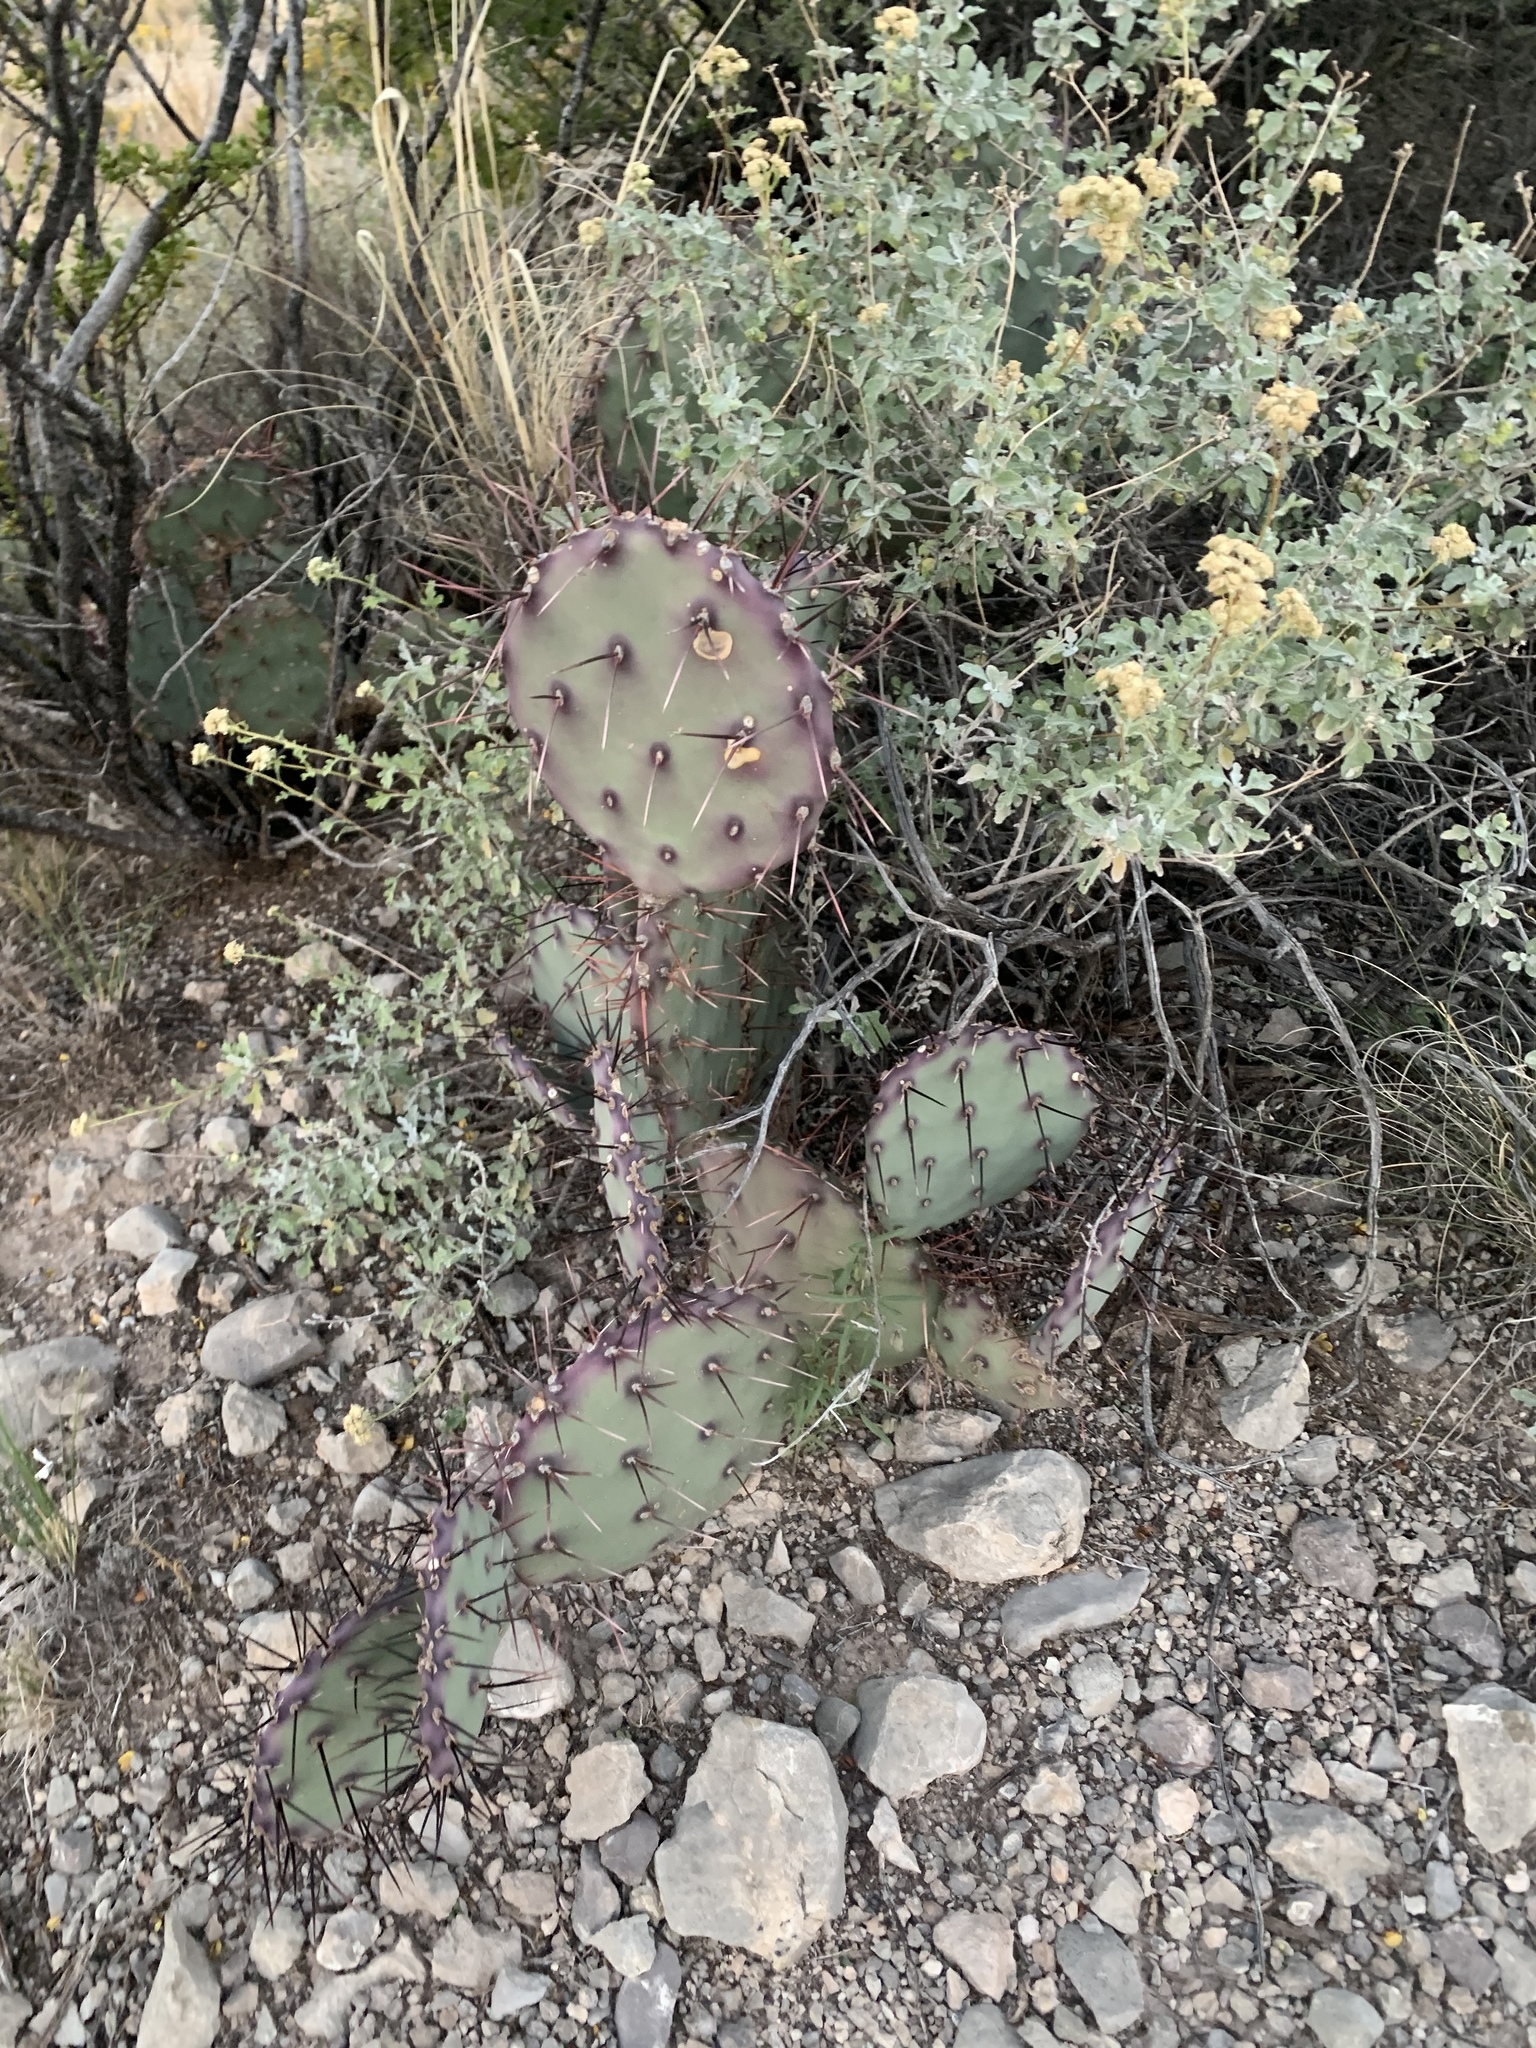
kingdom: Plantae
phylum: Tracheophyta
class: Magnoliopsida
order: Caryophyllales
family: Cactaceae
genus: Opuntia
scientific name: Opuntia macrocentra
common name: Purple prickly-pear
